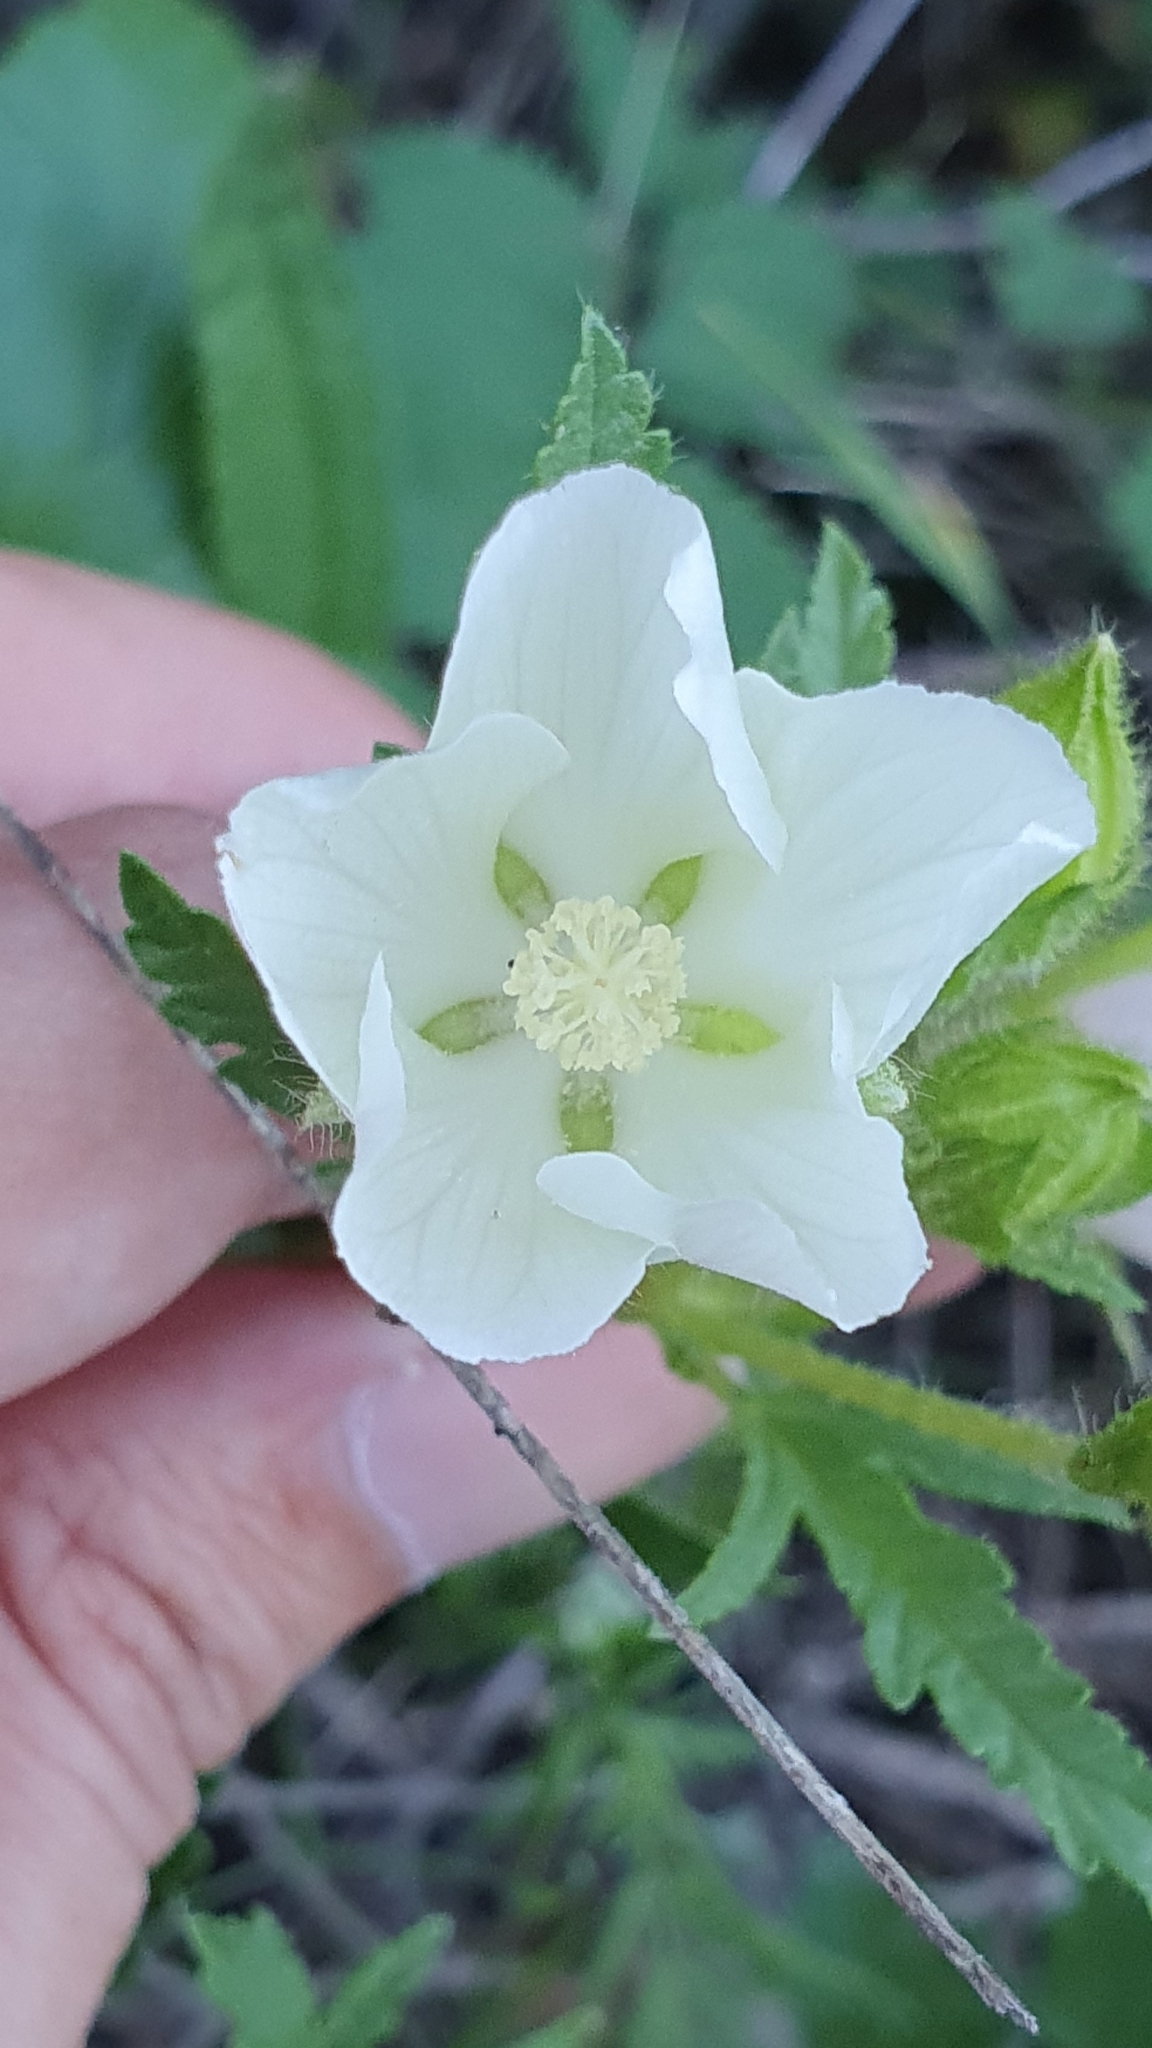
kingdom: Plantae
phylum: Tracheophyta
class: Magnoliopsida
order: Malvales
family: Malvaceae
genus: Malope
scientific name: Malope malacoides
